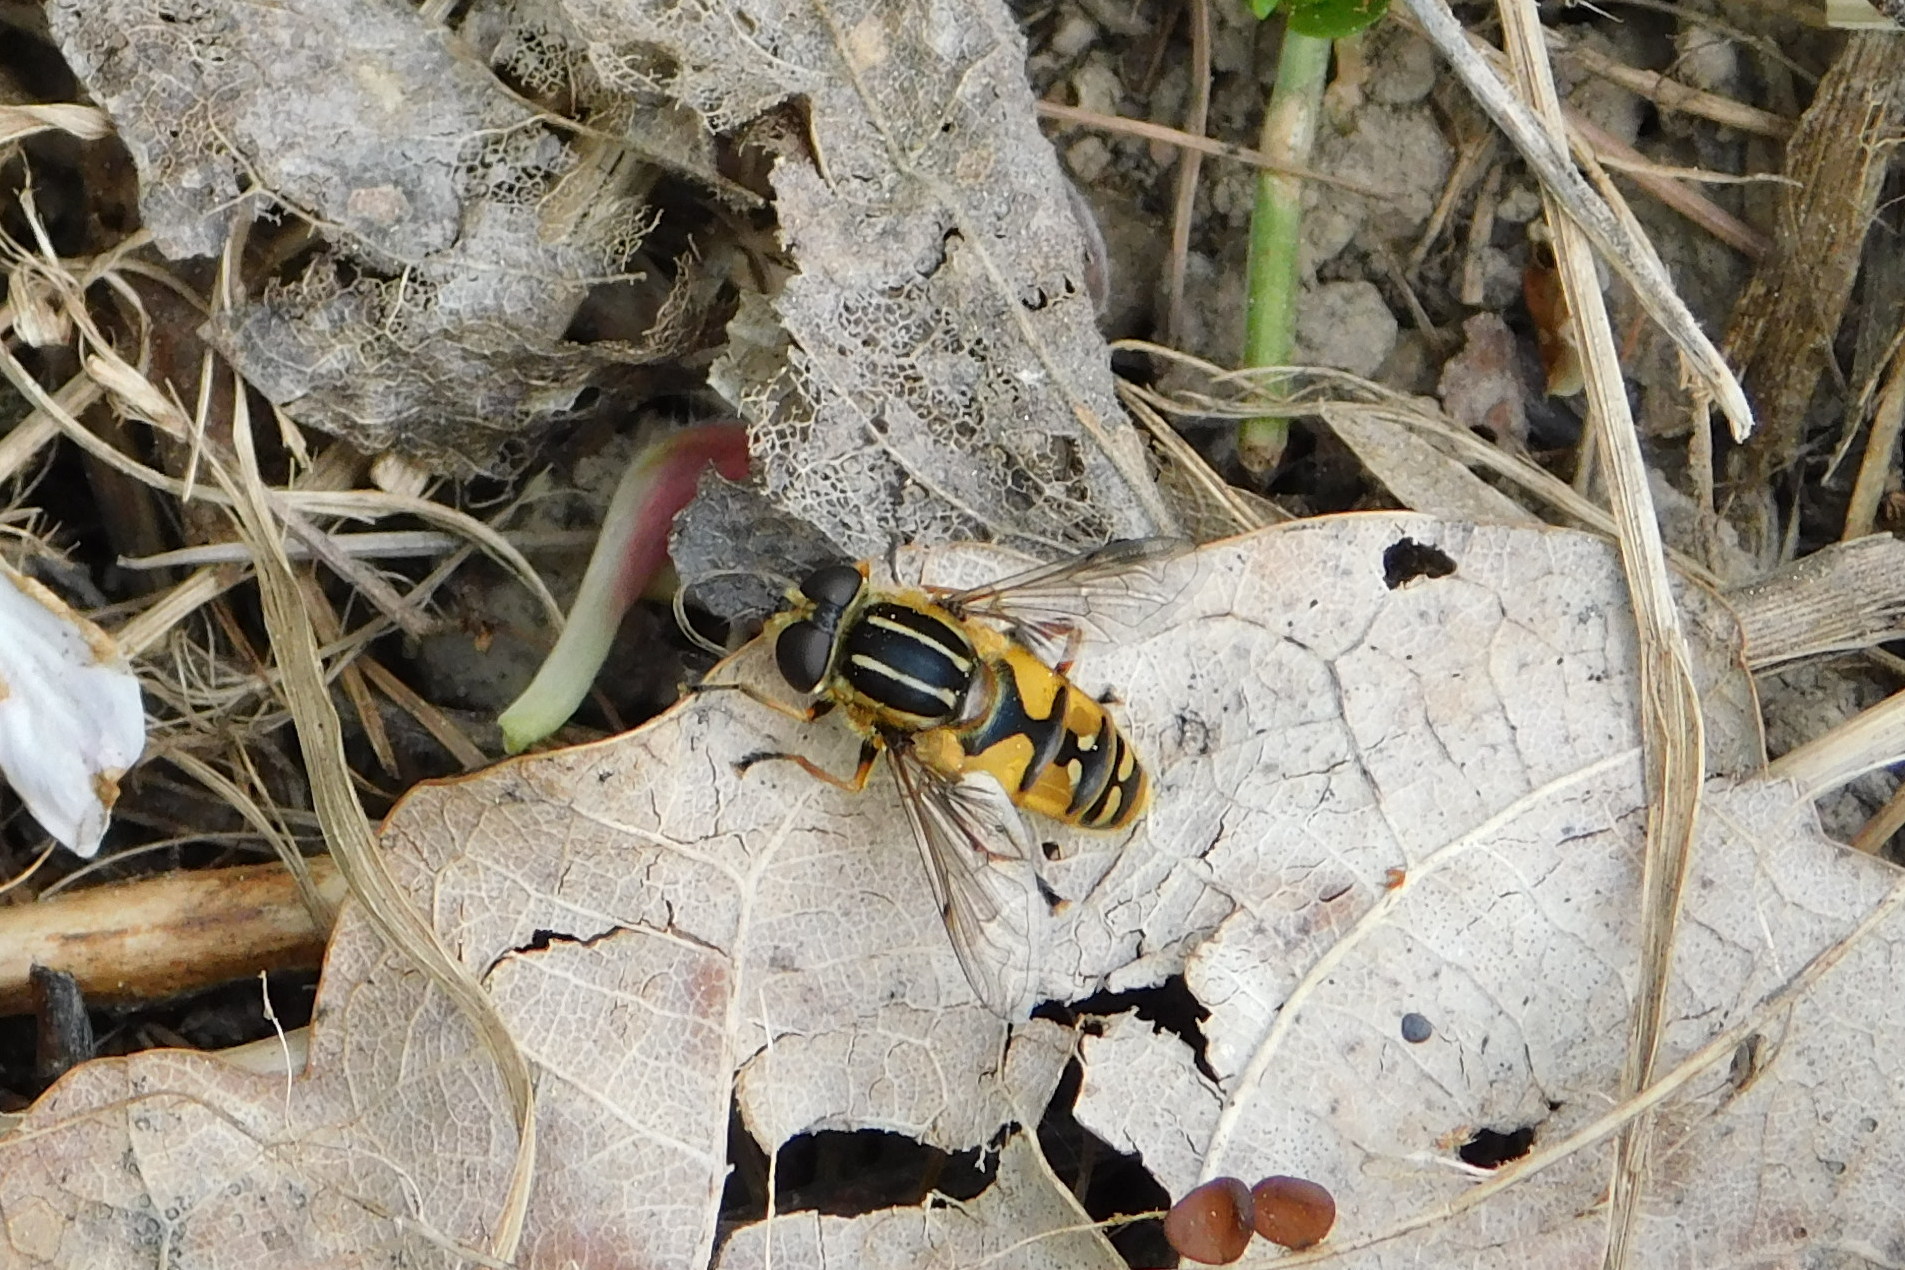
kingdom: Animalia
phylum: Arthropoda
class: Insecta
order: Diptera
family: Syrphidae
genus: Helophilus
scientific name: Helophilus pendulus
